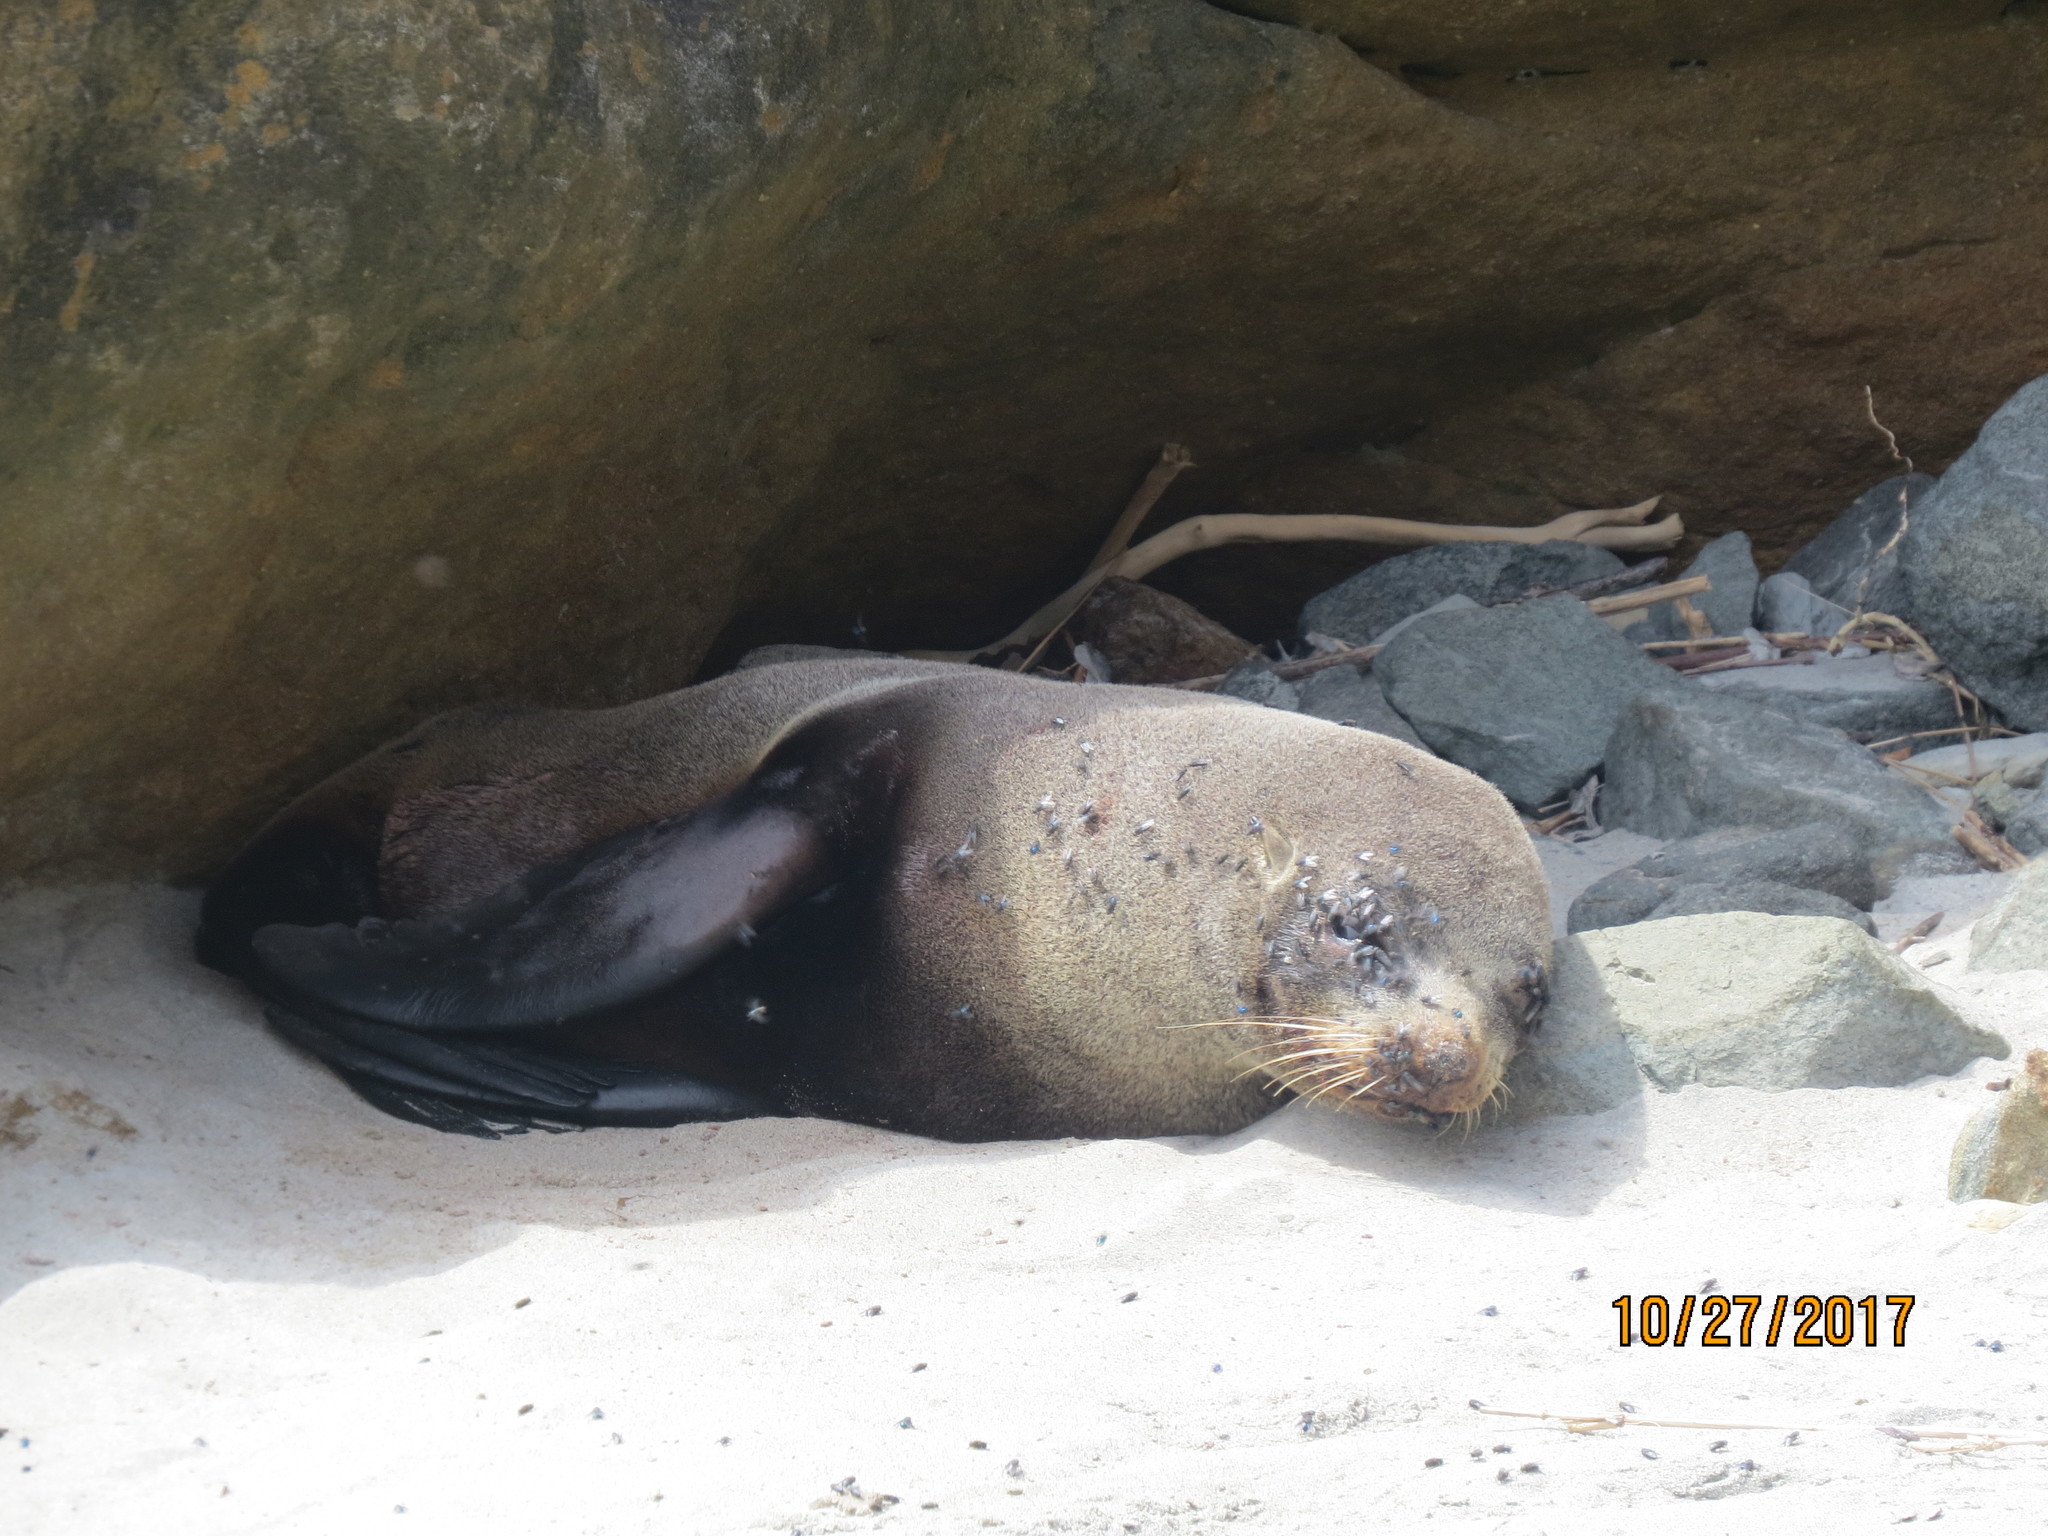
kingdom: Animalia
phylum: Chordata
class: Mammalia
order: Carnivora
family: Otariidae
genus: Arctocephalus
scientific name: Arctocephalus forsteri
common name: New zealand fur seal
